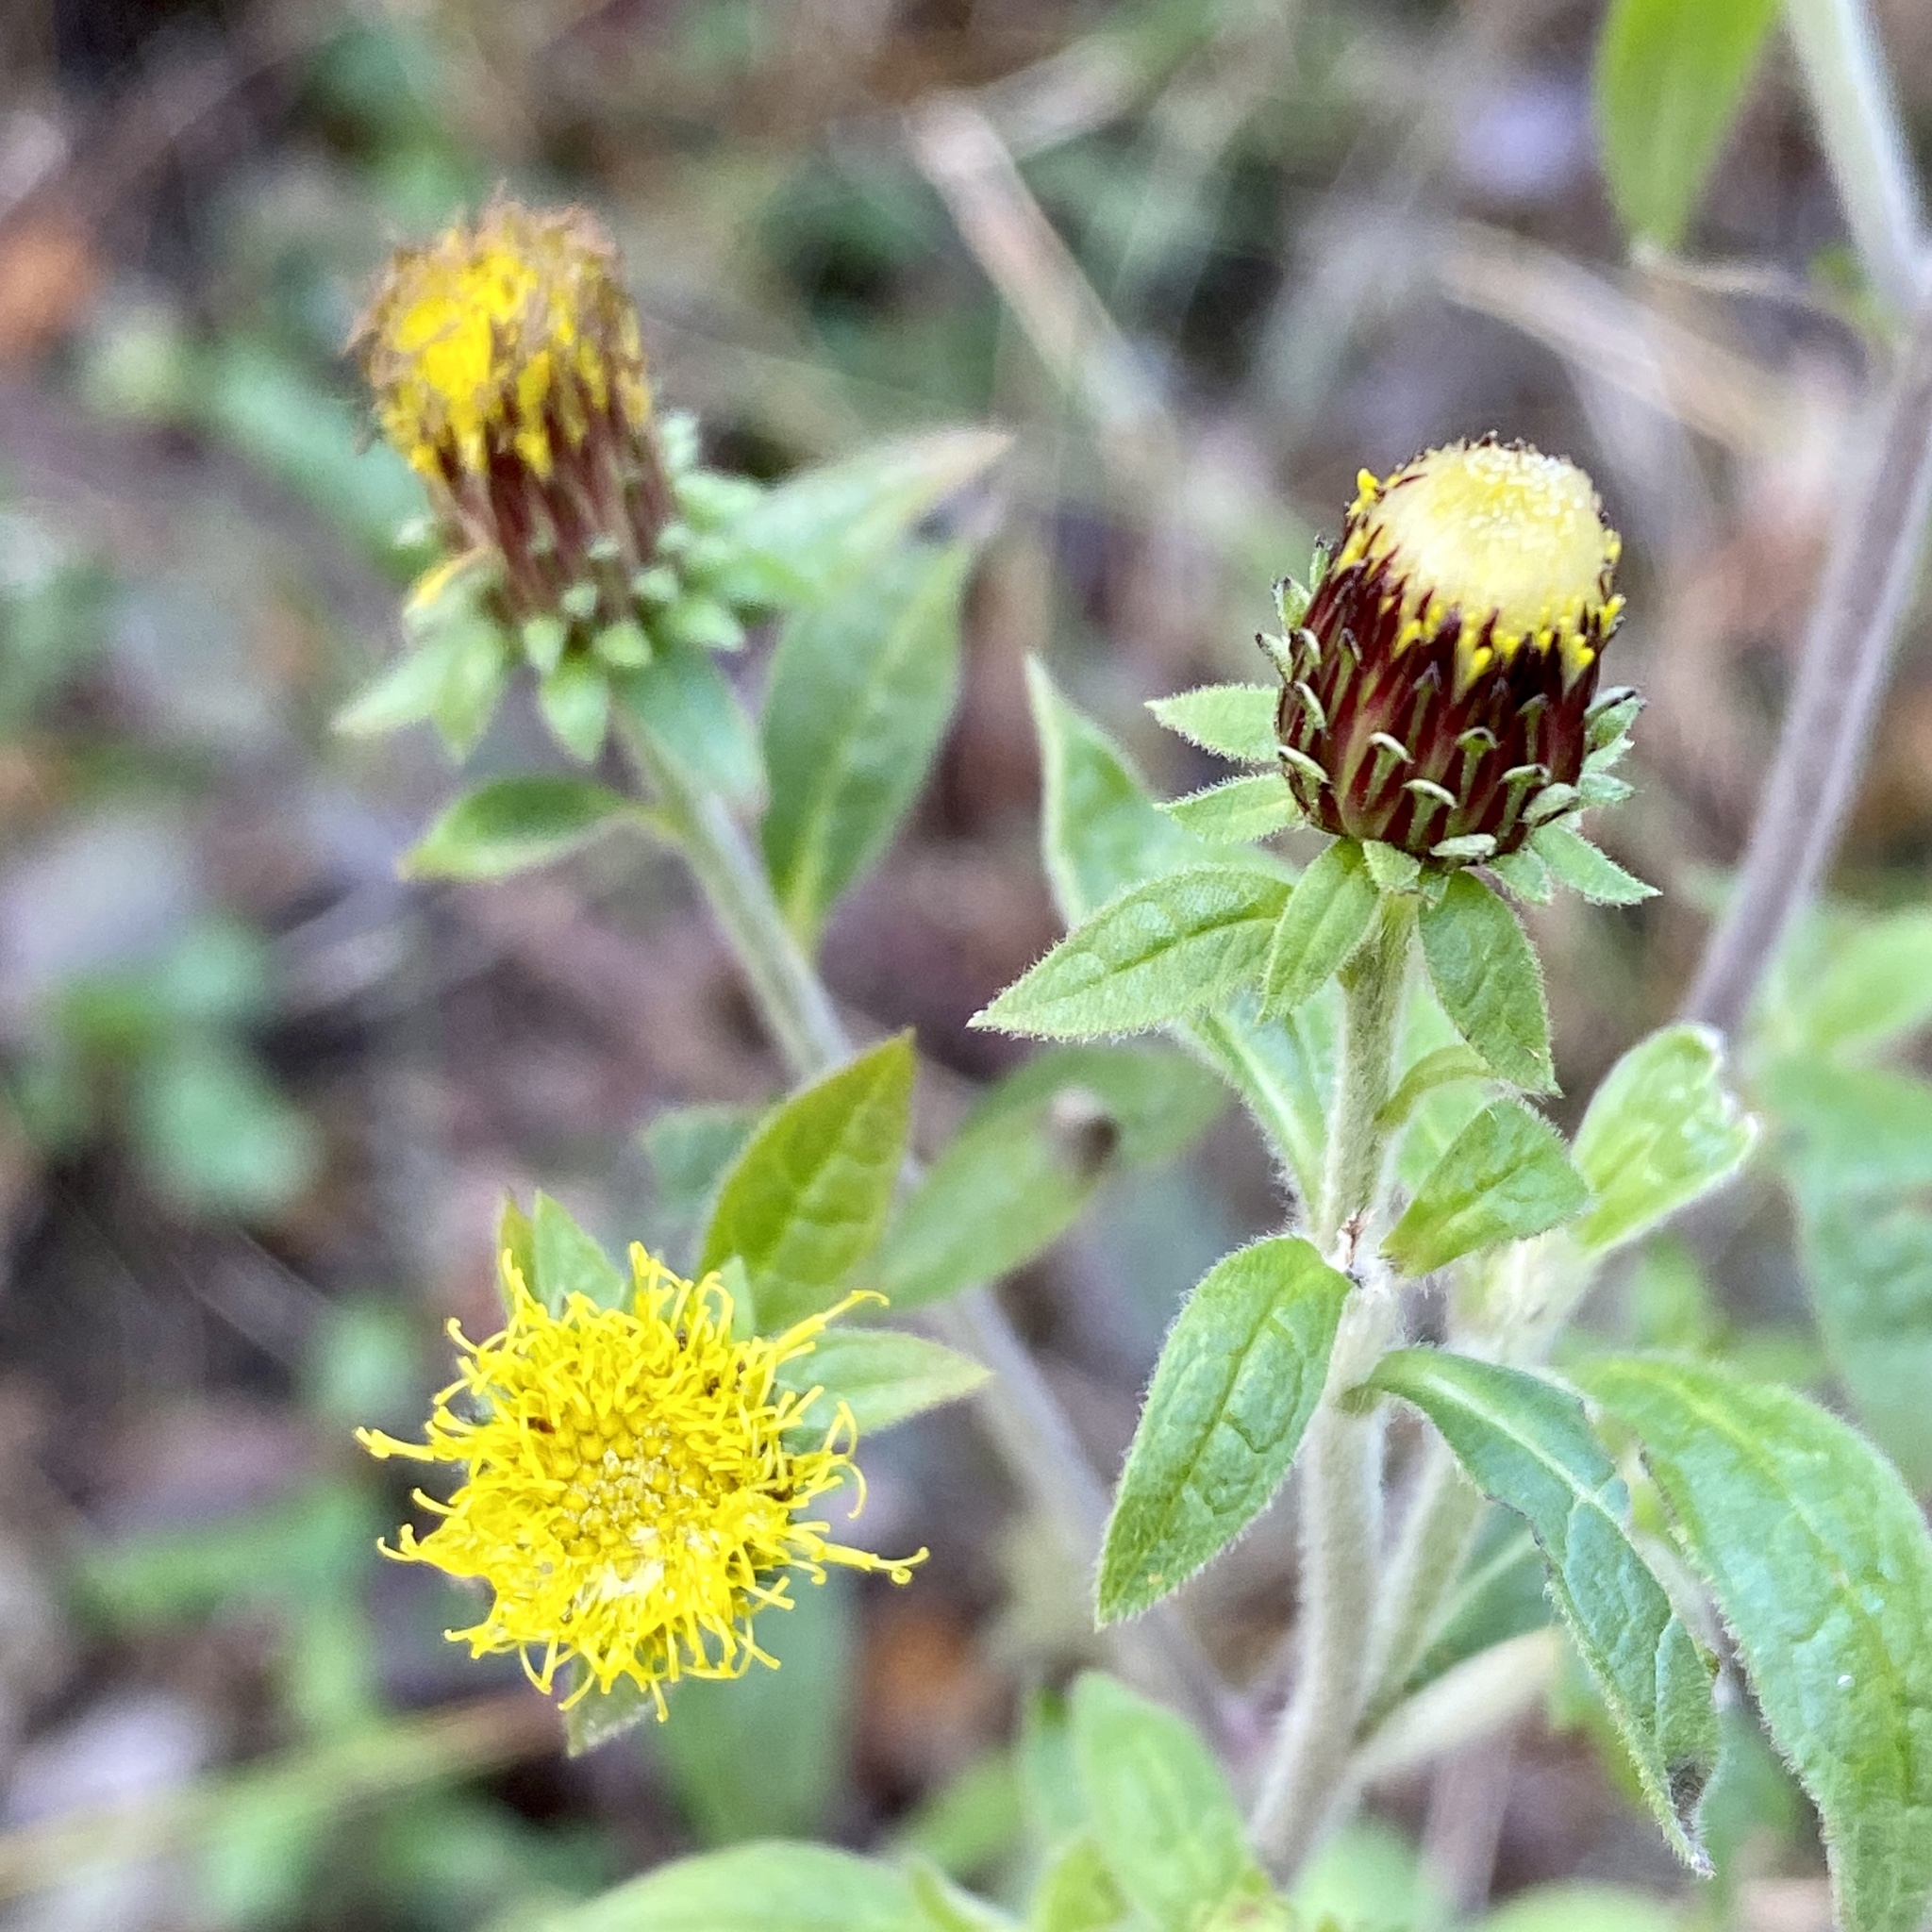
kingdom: Plantae
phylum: Tracheophyta
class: Magnoliopsida
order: Asterales
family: Asteraceae
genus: Pentanema
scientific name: Pentanema squarrosum
